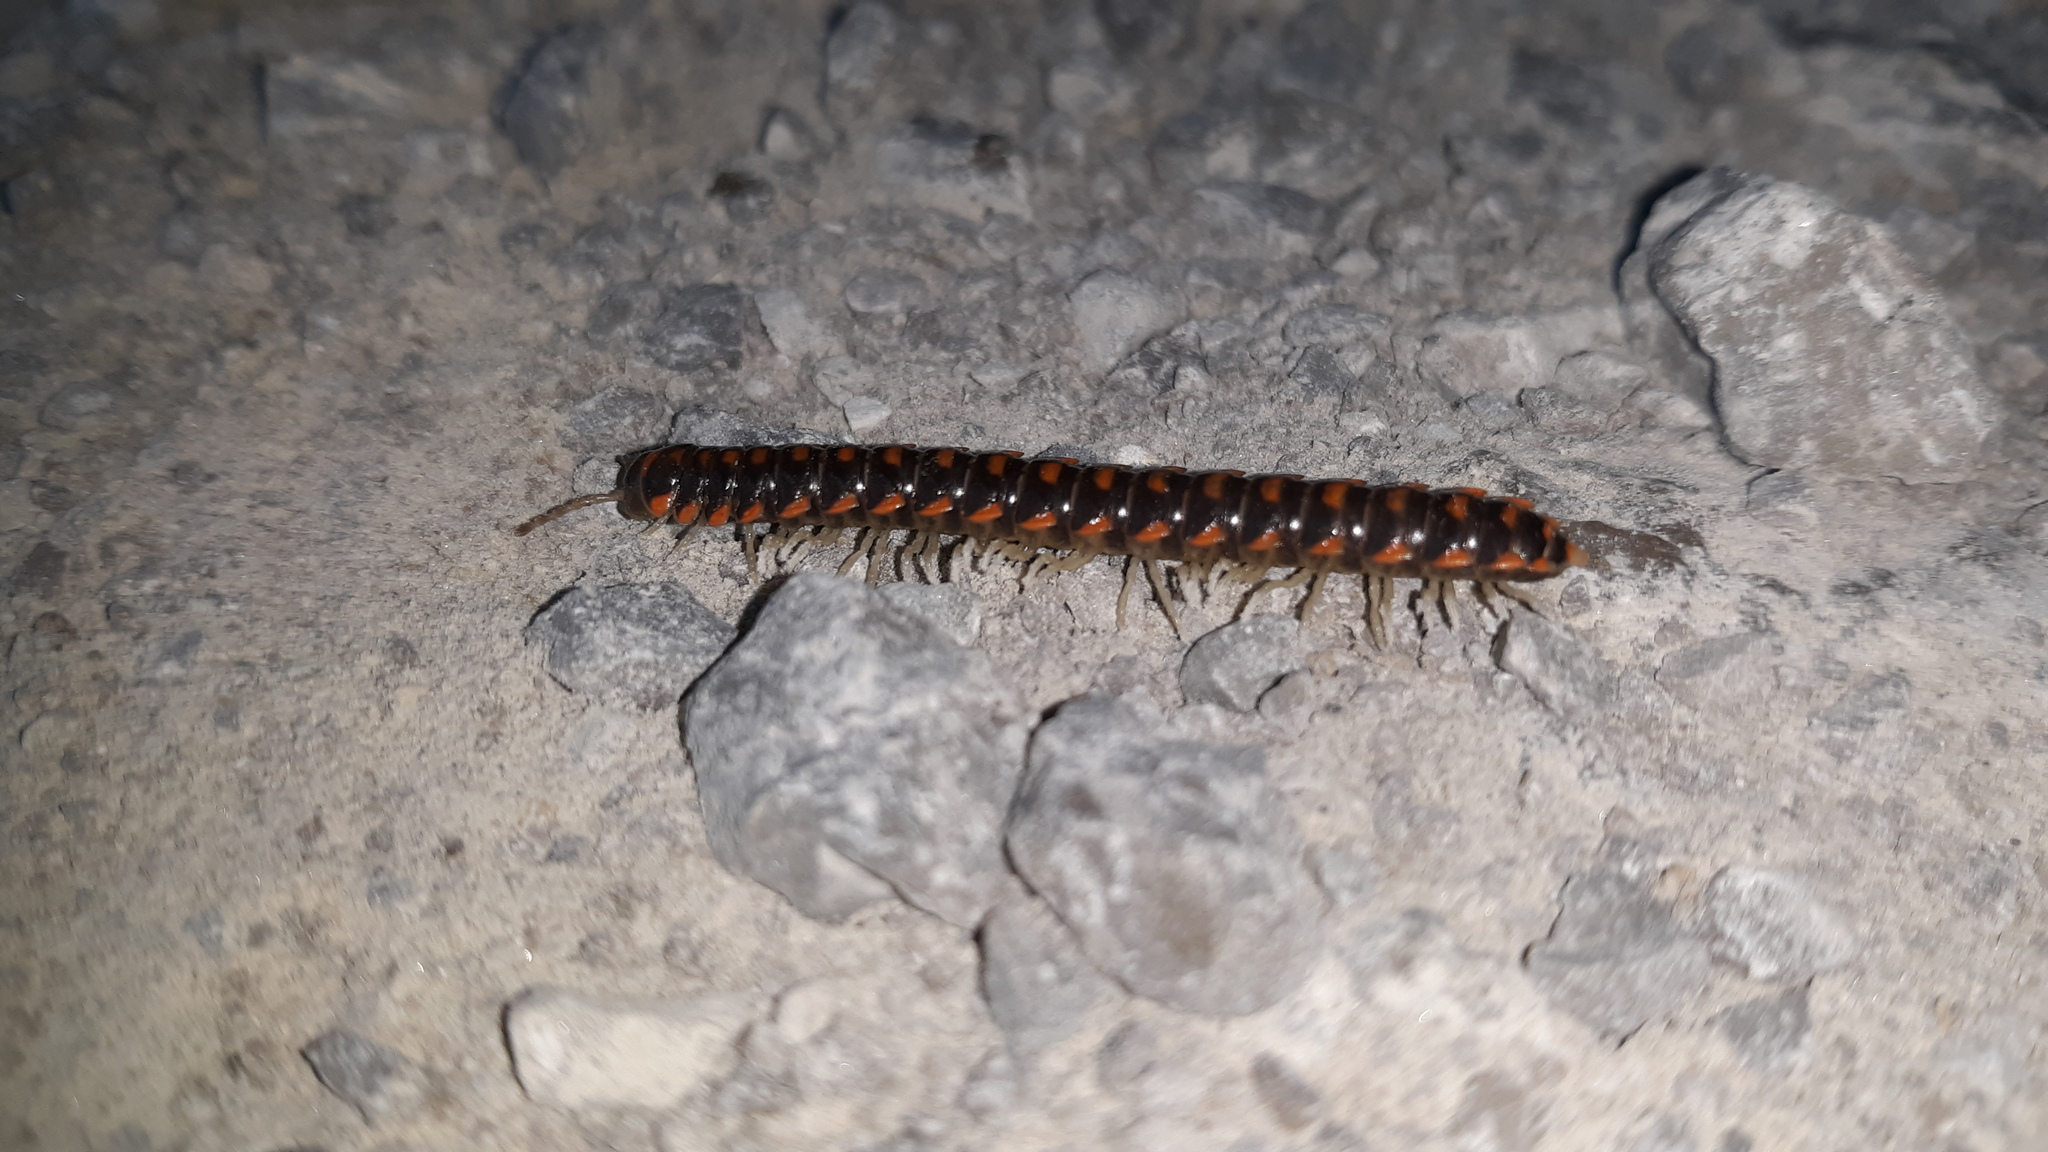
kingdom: Animalia
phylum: Arthropoda
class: Diplopoda
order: Polydesmida
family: Xystodesmidae
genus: Euryurus
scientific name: Euryurus leachii
